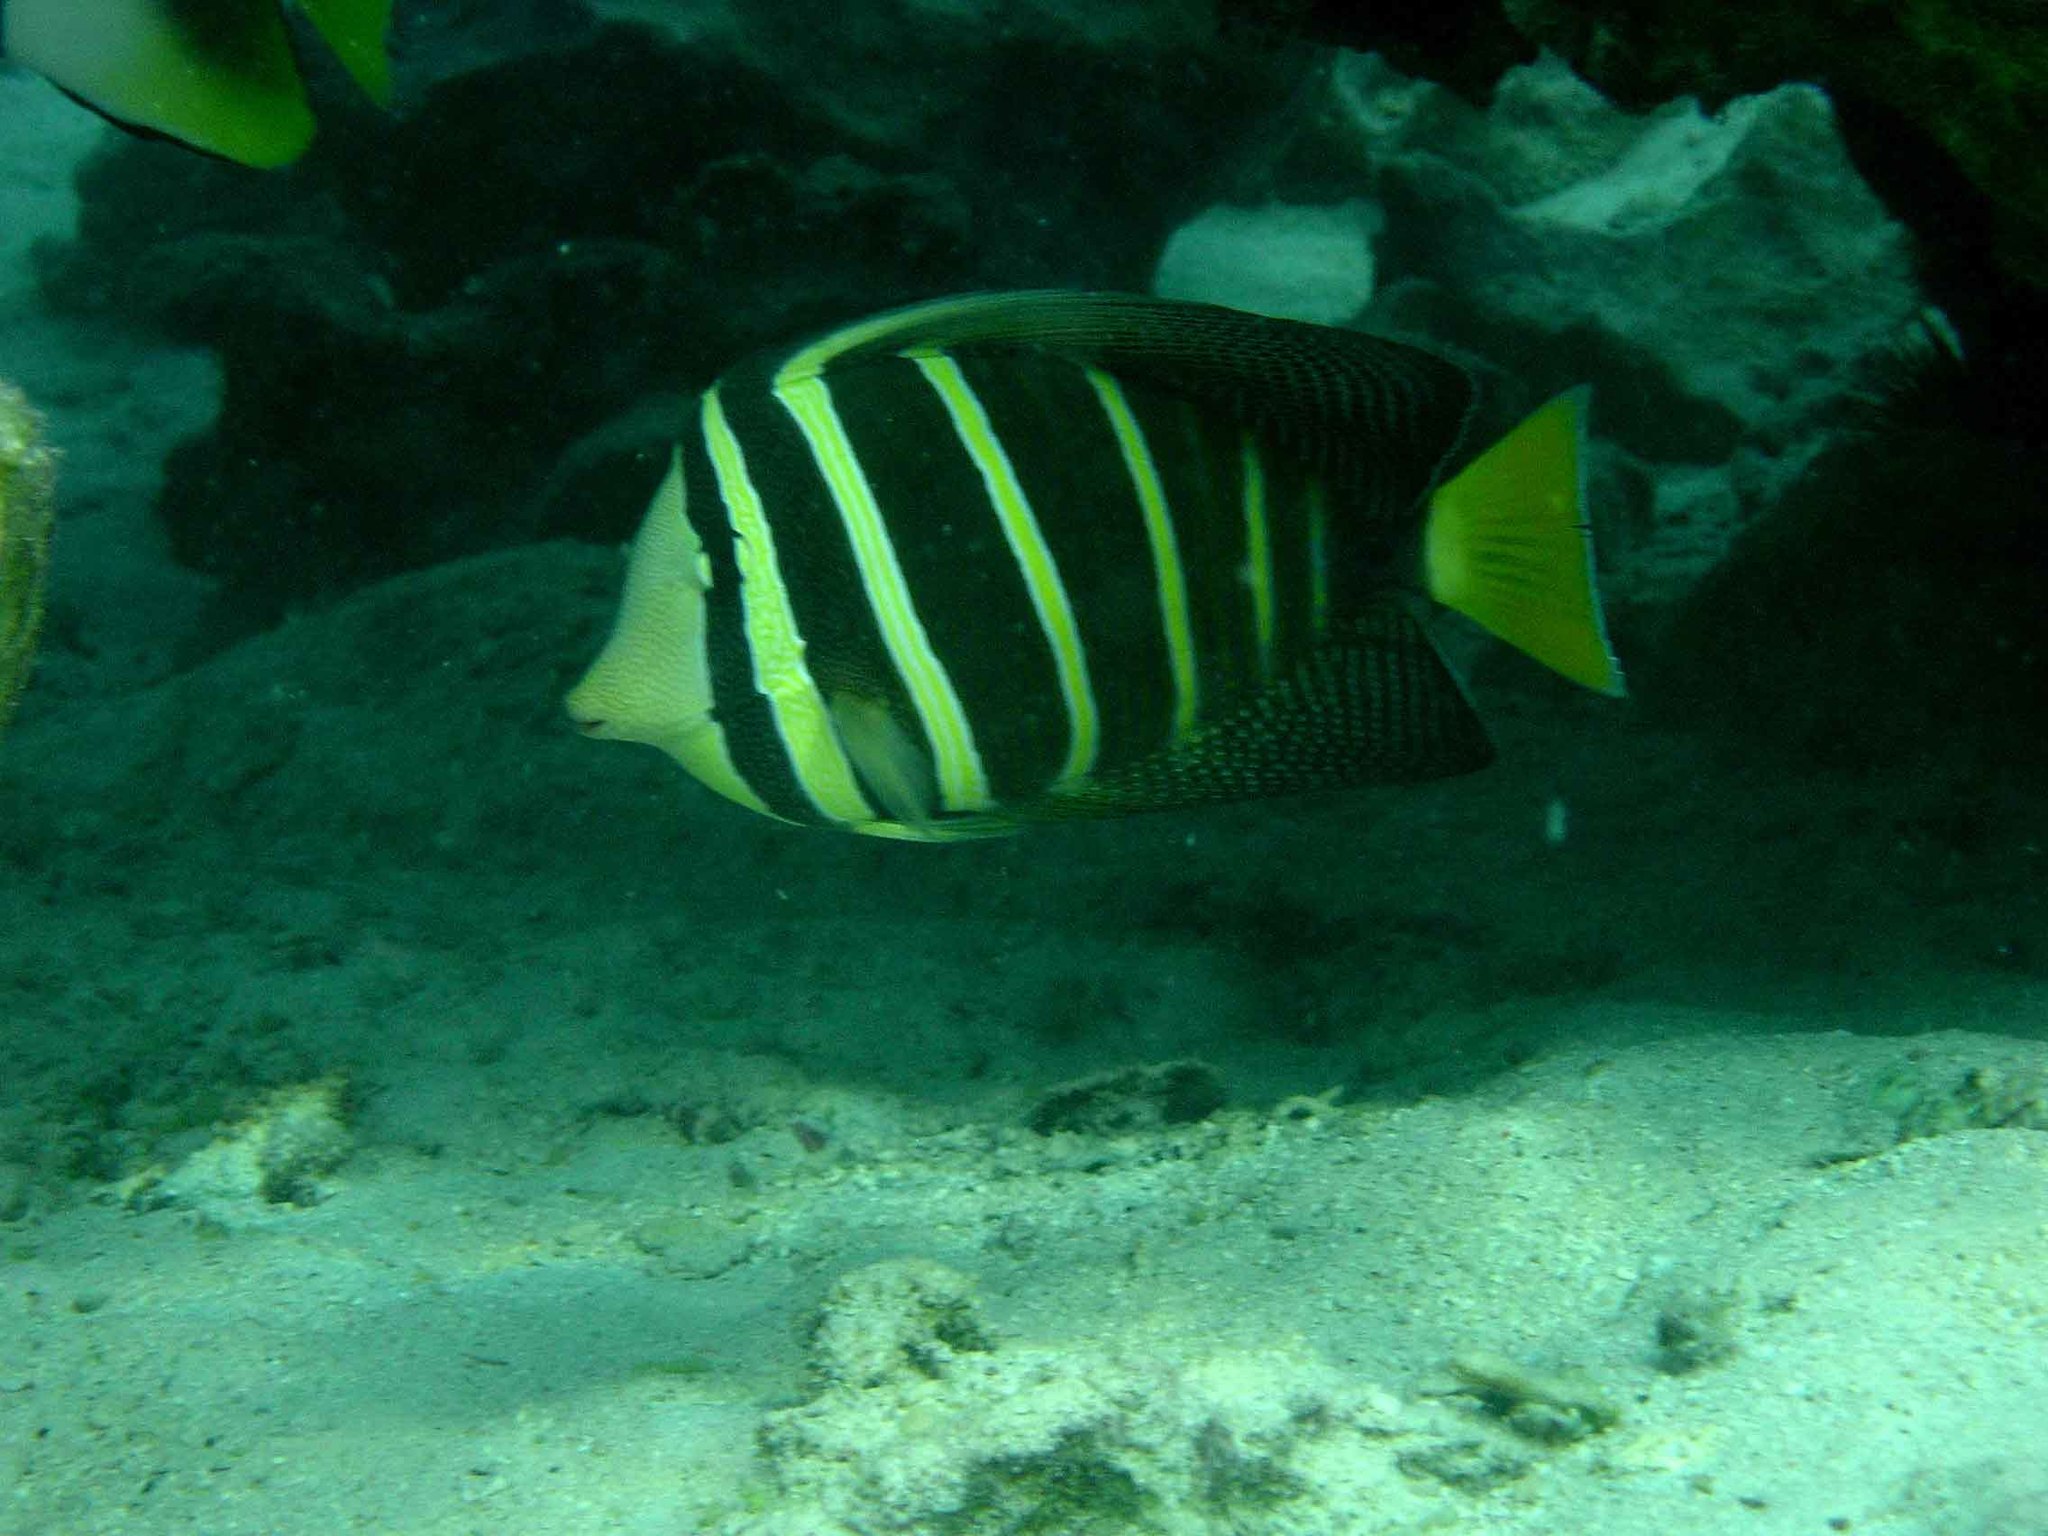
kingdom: Animalia
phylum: Chordata
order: Perciformes
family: Acanthuridae
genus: Zebrasoma
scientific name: Zebrasoma veliferum
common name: Sailfin surgeonfish
